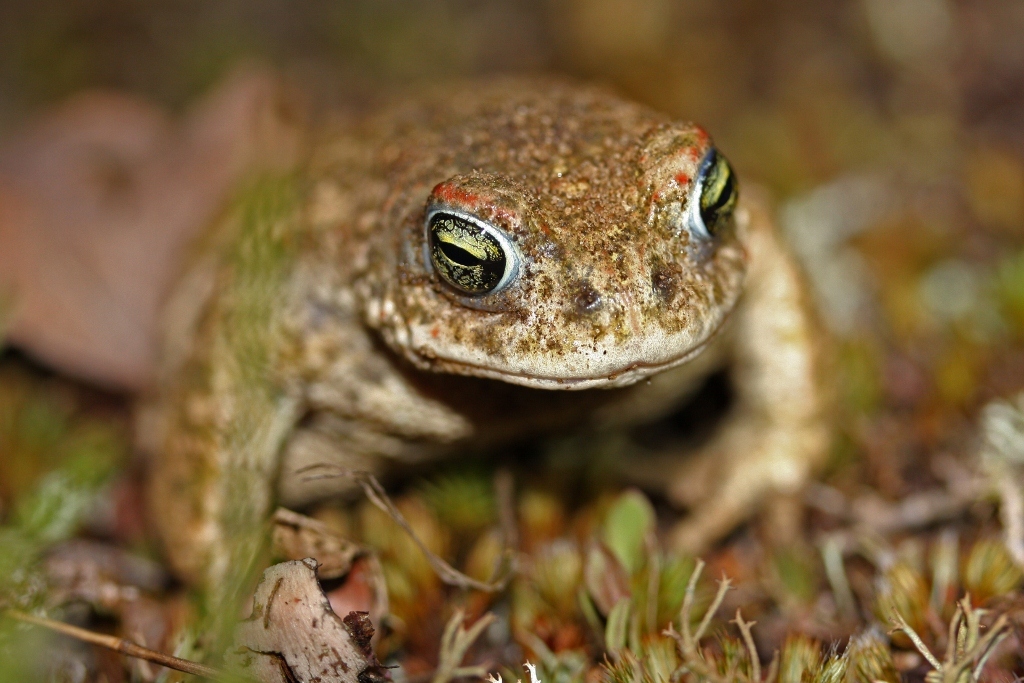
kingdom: Animalia
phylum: Chordata
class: Amphibia
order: Anura
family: Bufonidae
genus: Epidalea
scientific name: Epidalea calamita
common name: Natterjack toad
